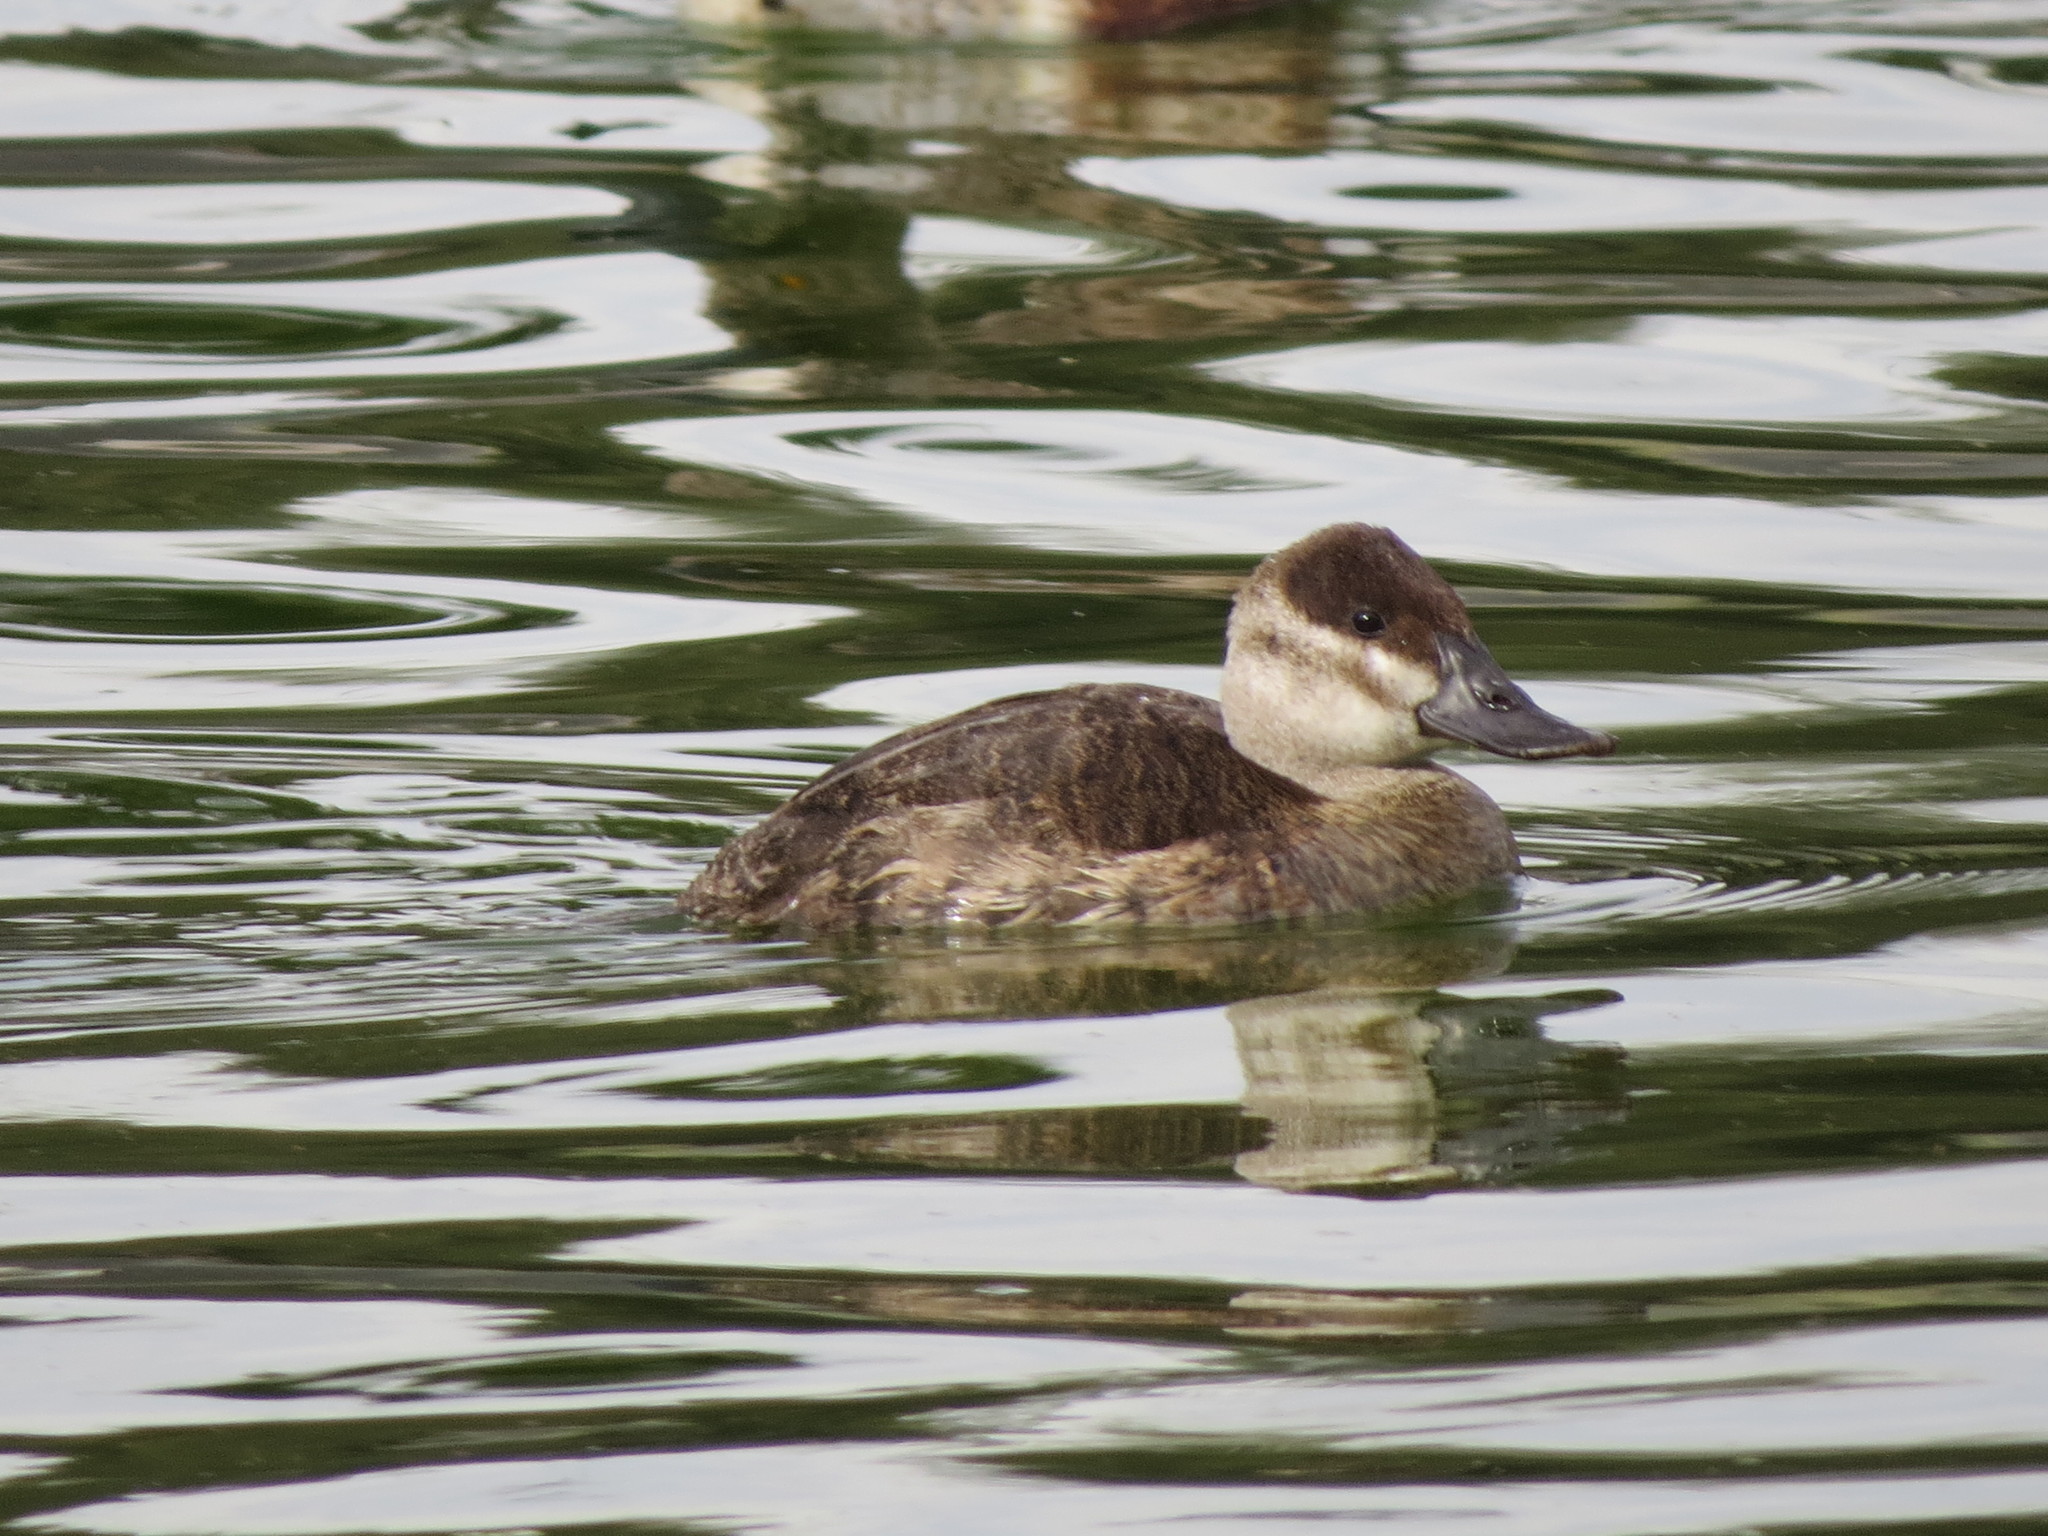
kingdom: Animalia
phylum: Chordata
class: Aves
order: Anseriformes
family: Anatidae
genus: Oxyura
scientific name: Oxyura jamaicensis
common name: Ruddy duck
